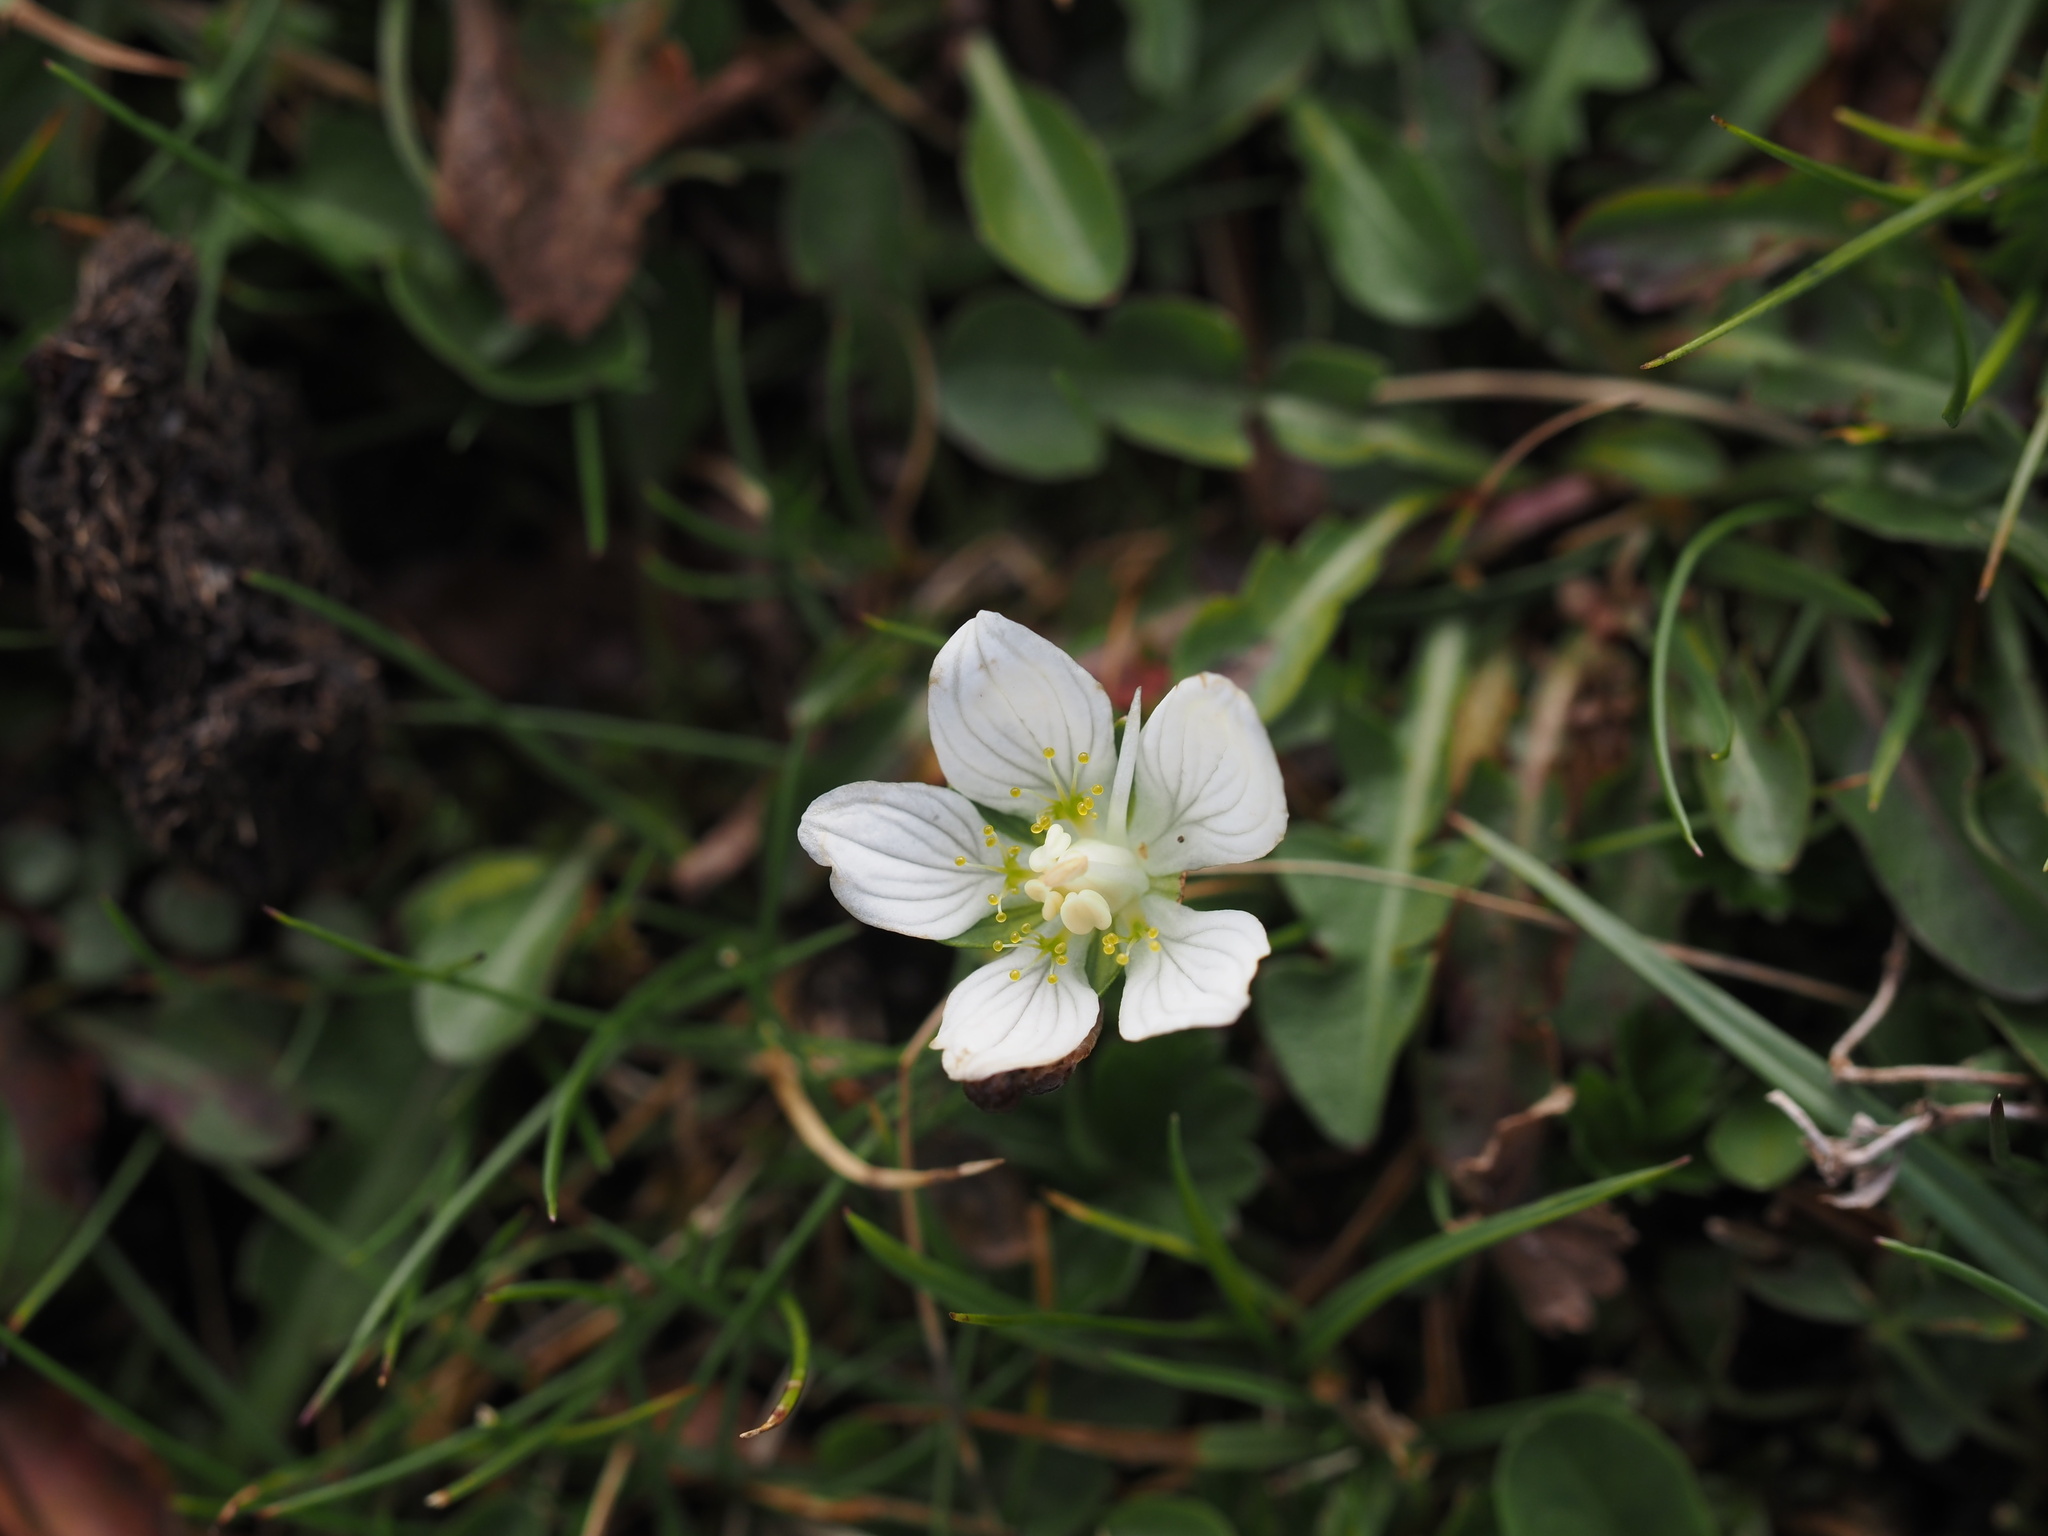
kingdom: Plantae
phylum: Tracheophyta
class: Magnoliopsida
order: Celastrales
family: Parnassiaceae
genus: Parnassia
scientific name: Parnassia palustris
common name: Grass-of-parnassus
